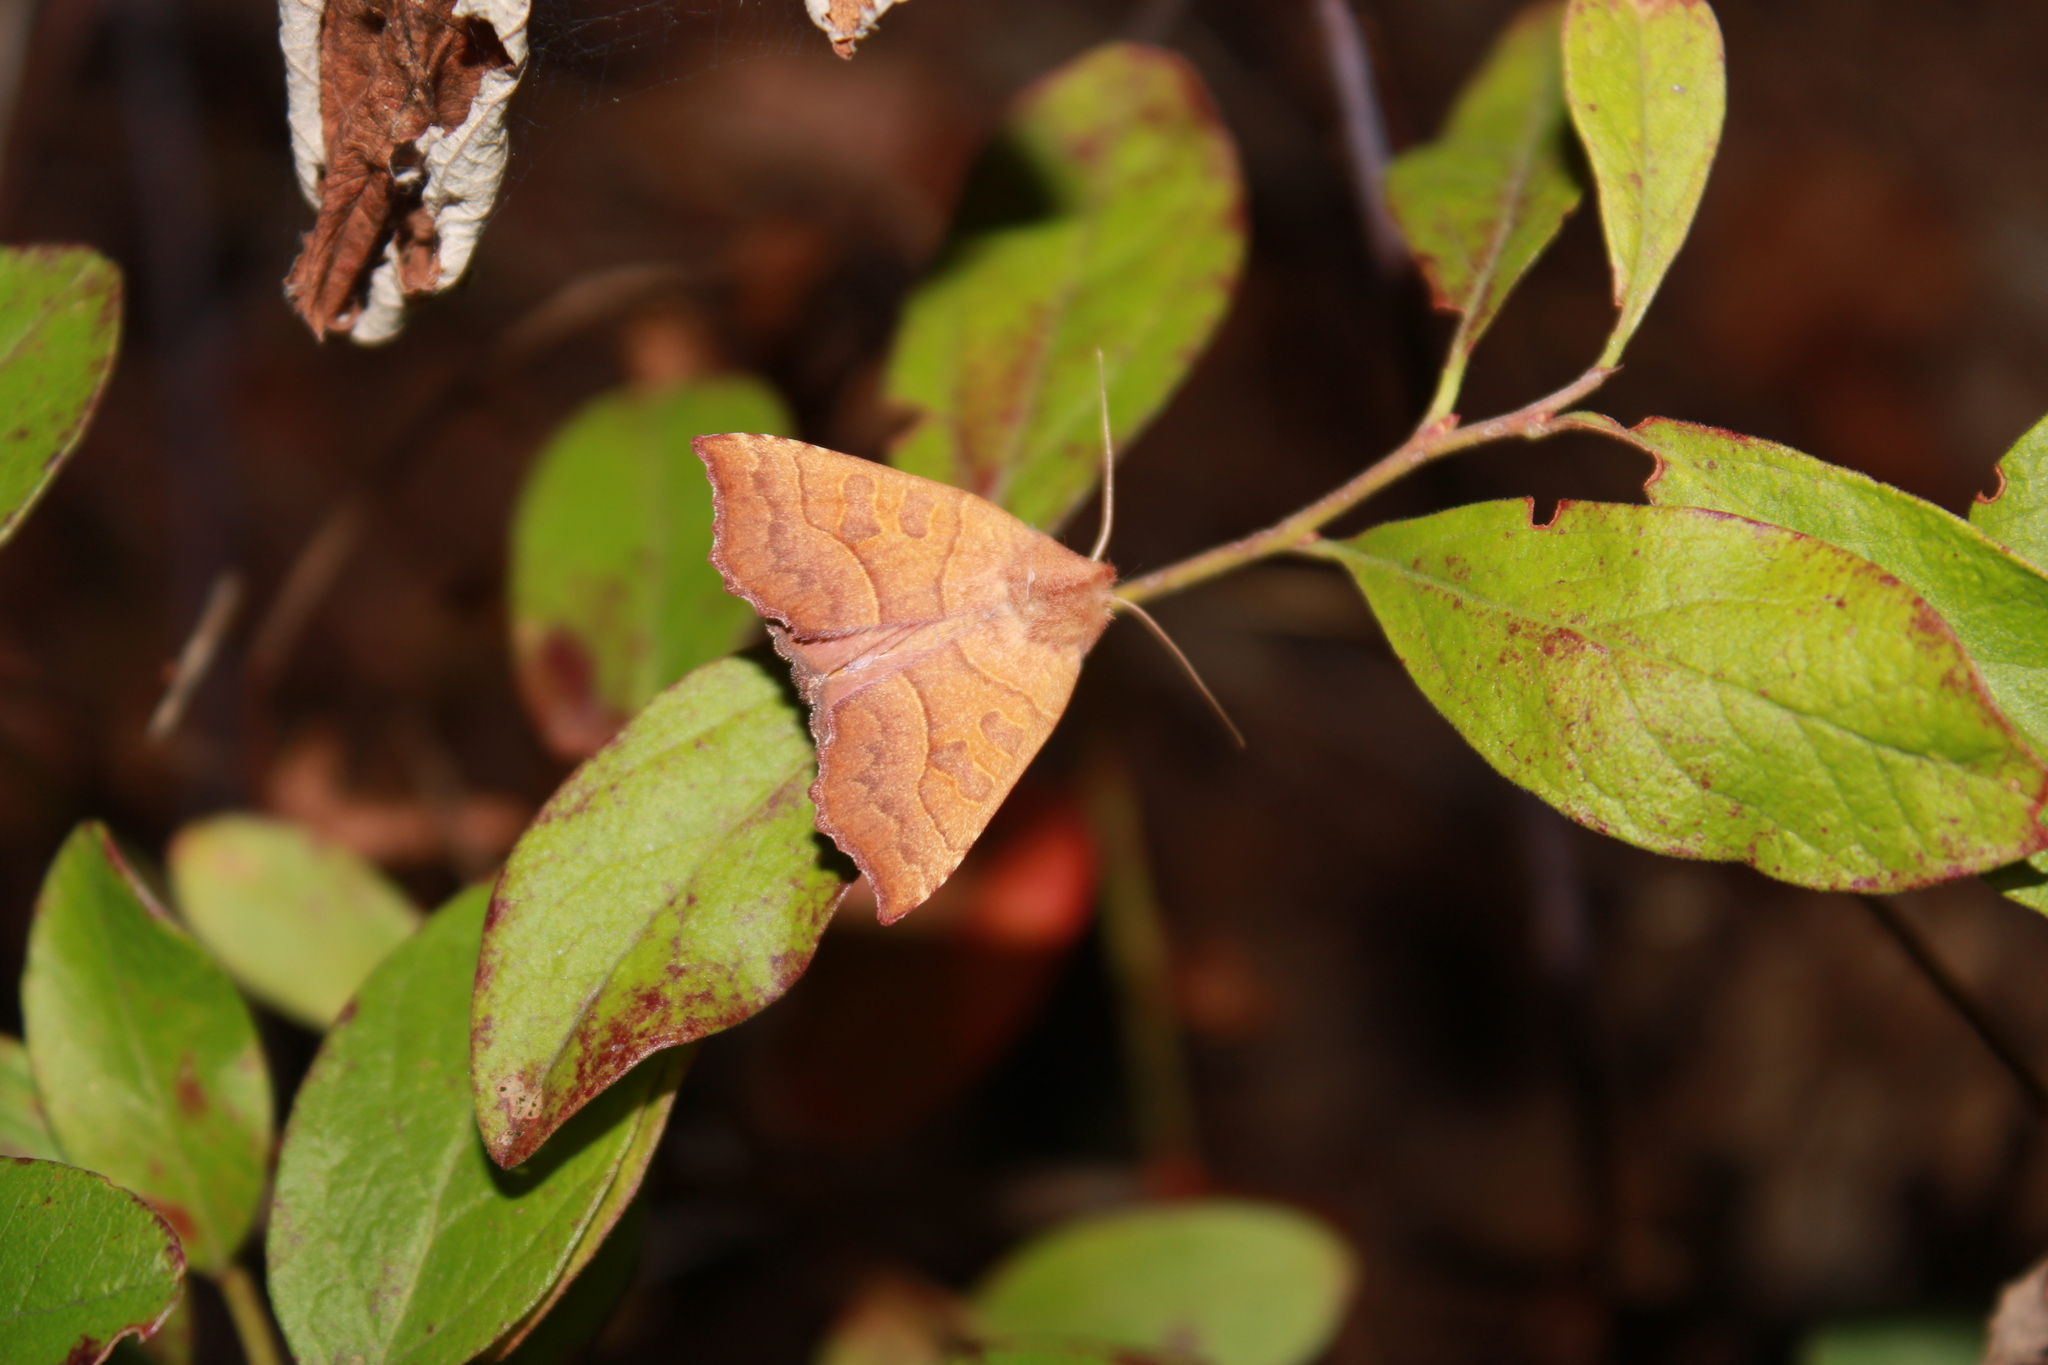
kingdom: Animalia
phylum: Arthropoda
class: Insecta
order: Lepidoptera
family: Noctuidae
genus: Eucirroedia
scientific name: Eucirroedia pampina
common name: Scalloped sallow
